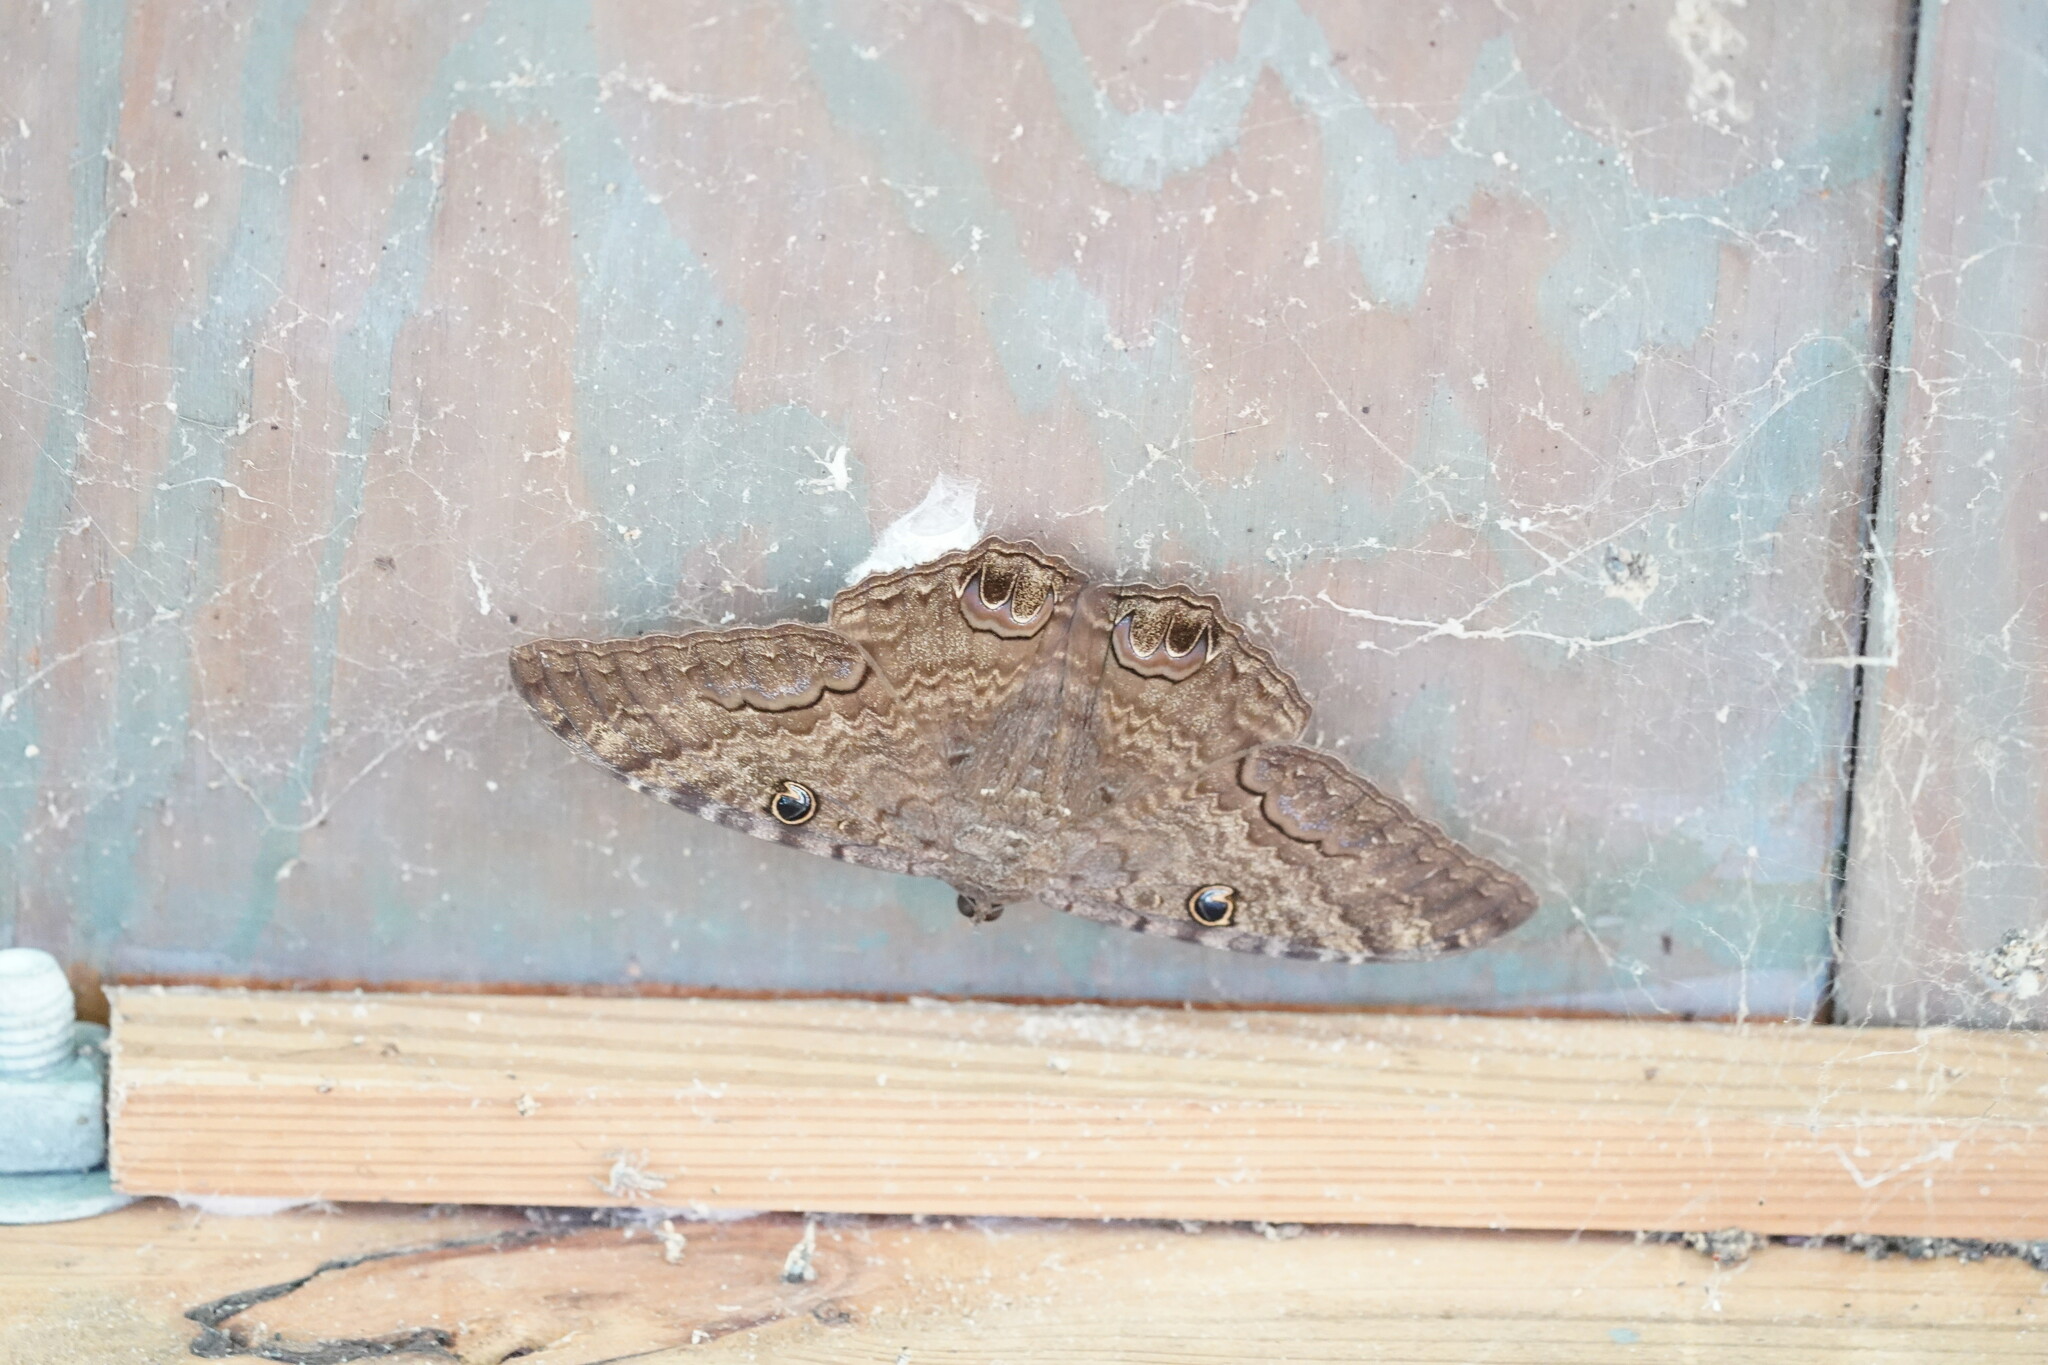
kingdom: Animalia
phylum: Arthropoda
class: Insecta
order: Lepidoptera
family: Erebidae
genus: Ascalapha
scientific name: Ascalapha odorata
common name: Black witch
